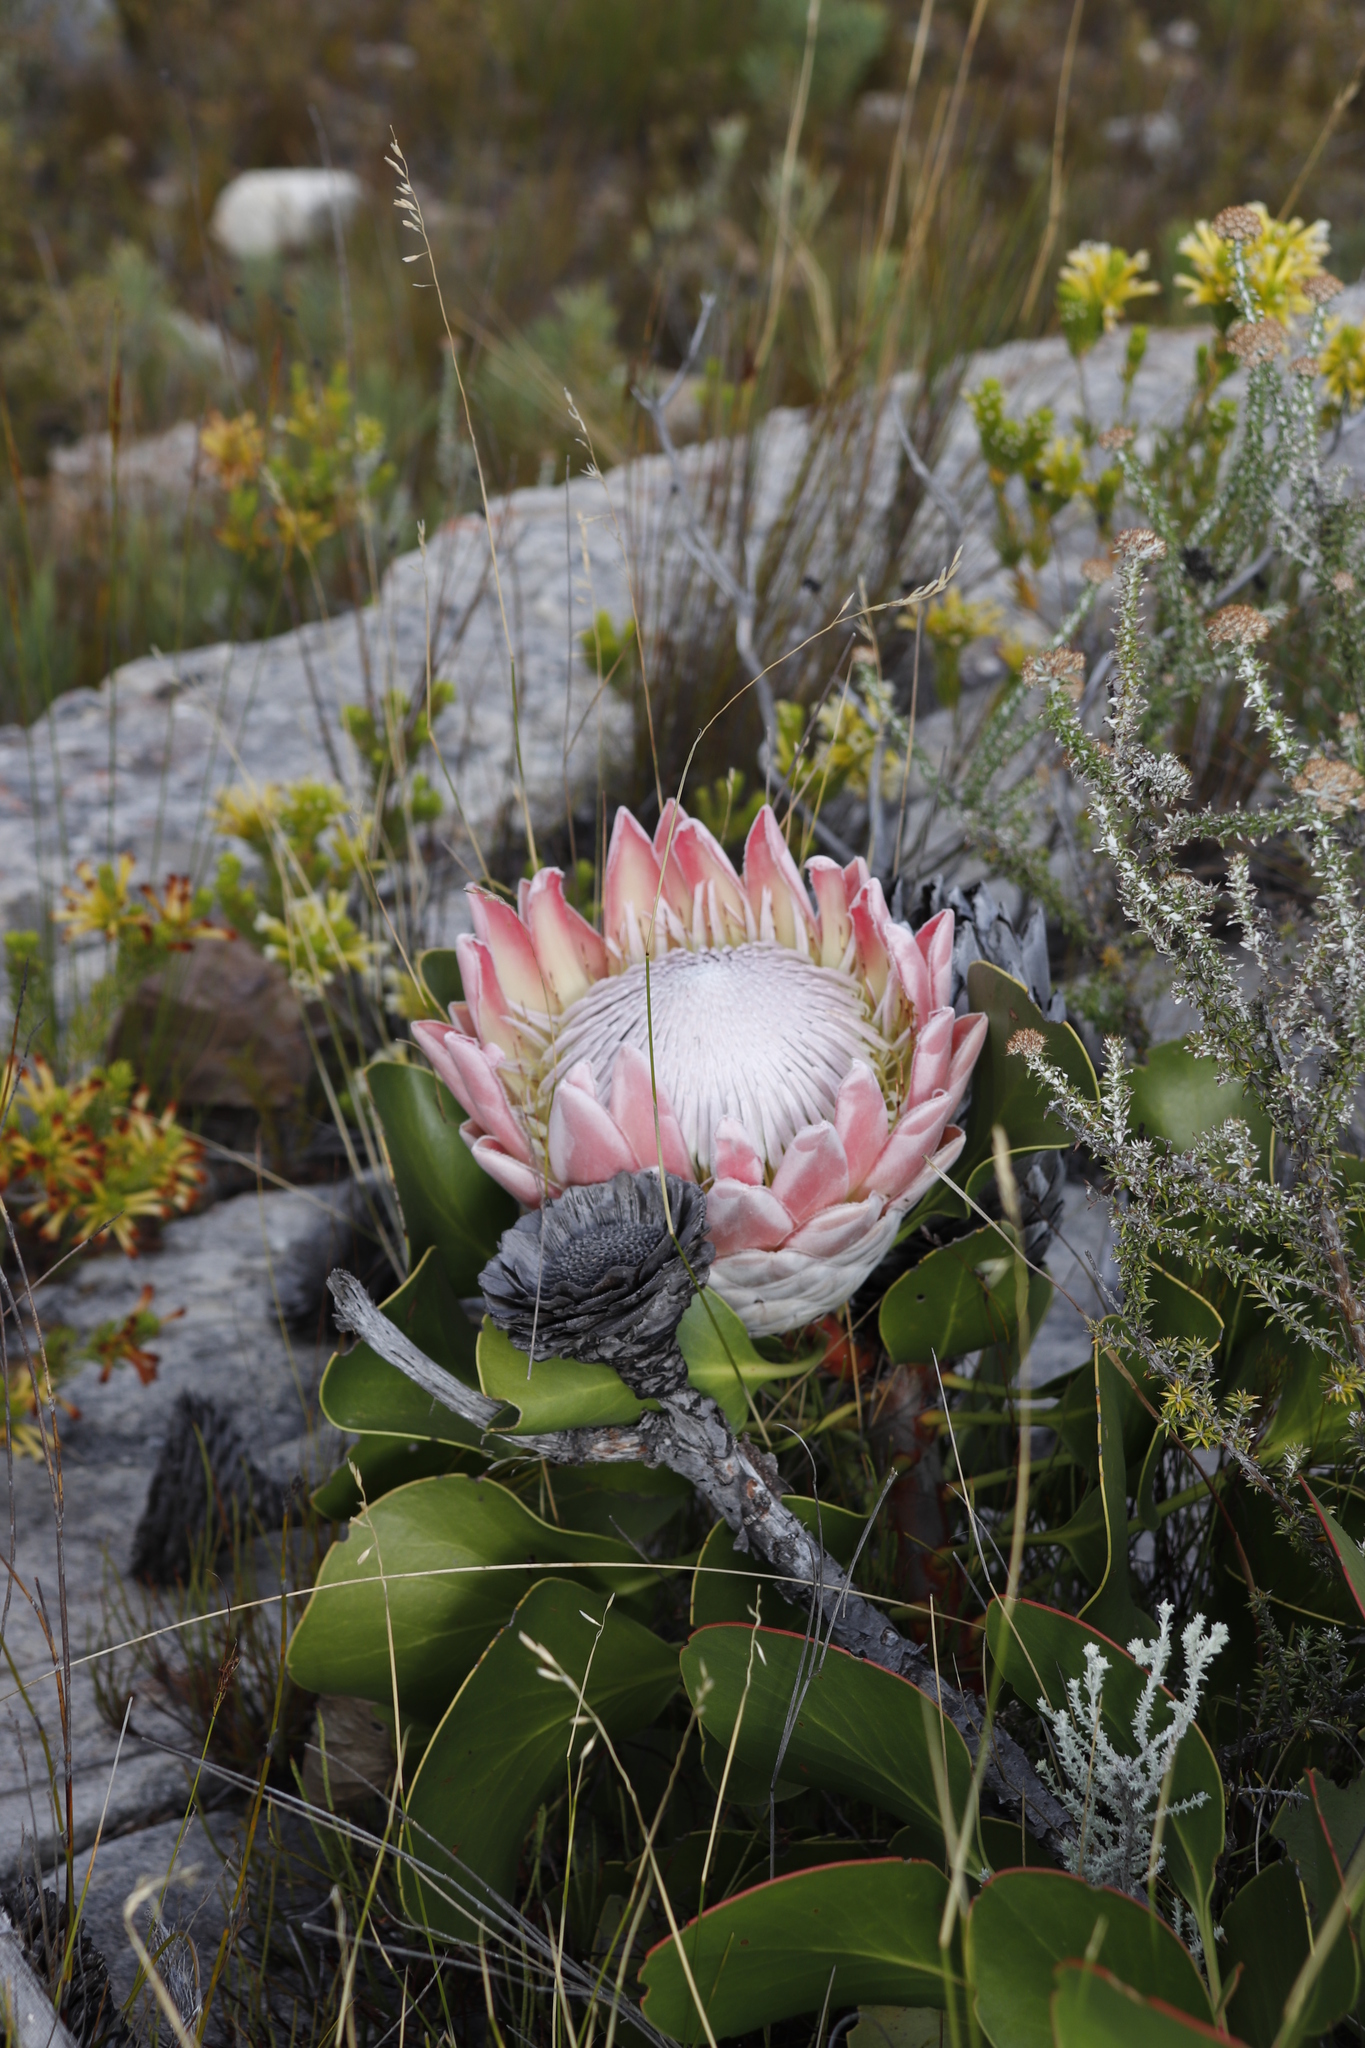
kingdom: Plantae
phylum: Tracheophyta
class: Magnoliopsida
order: Proteales
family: Proteaceae
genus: Protea
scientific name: Protea cynaroides
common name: King protea
